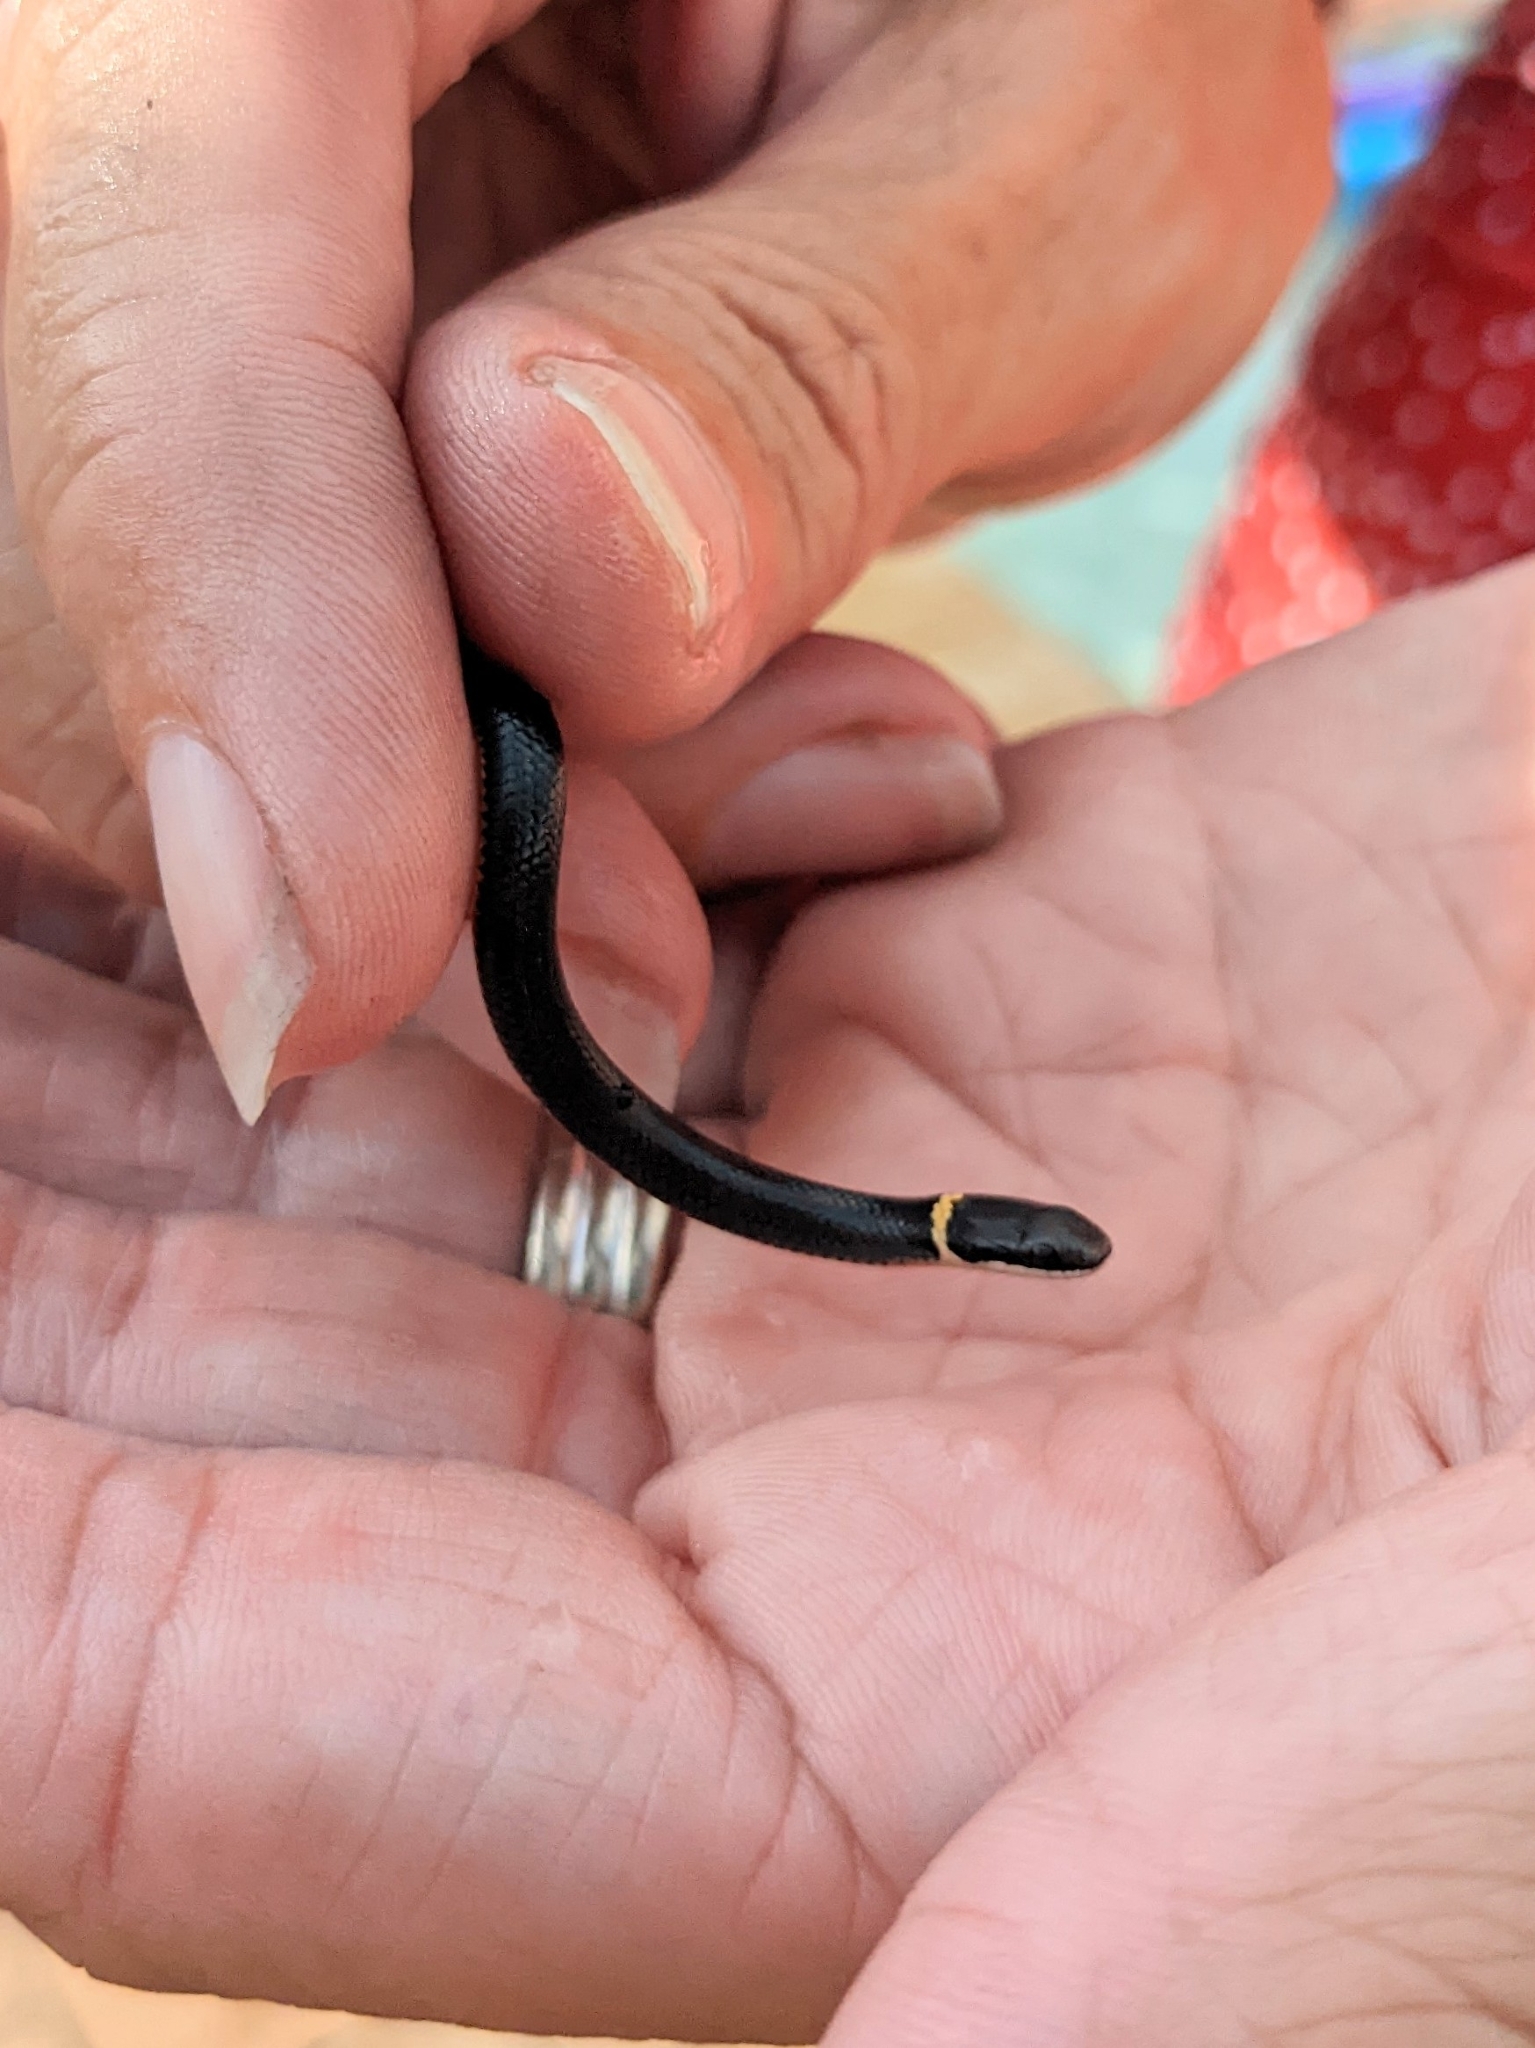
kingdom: Animalia
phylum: Chordata
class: Squamata
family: Colubridae
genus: Diadophis
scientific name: Diadophis punctatus
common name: Ringneck snake
